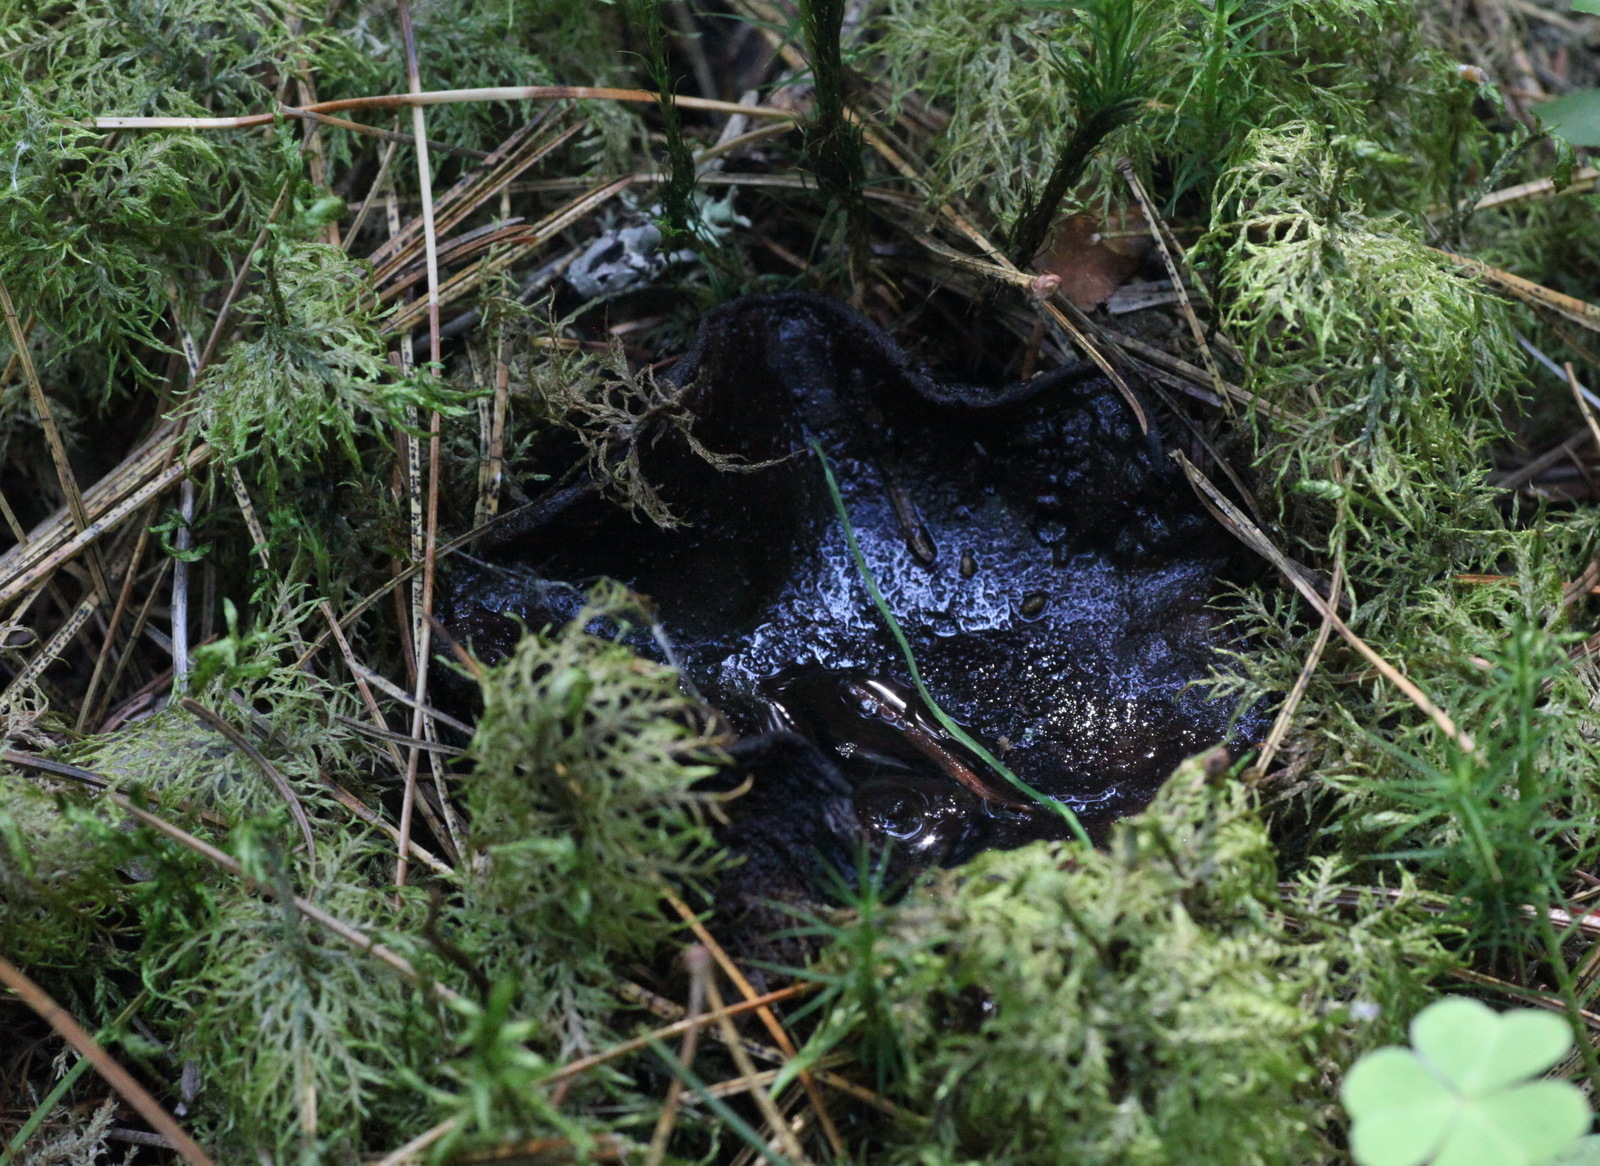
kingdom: Fungi
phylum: Ascomycota
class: Pezizomycetes
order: Pezizales
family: Sarcosomataceae
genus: Sarcosoma
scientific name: Sarcosoma globosum
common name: Charred-pancake cup
